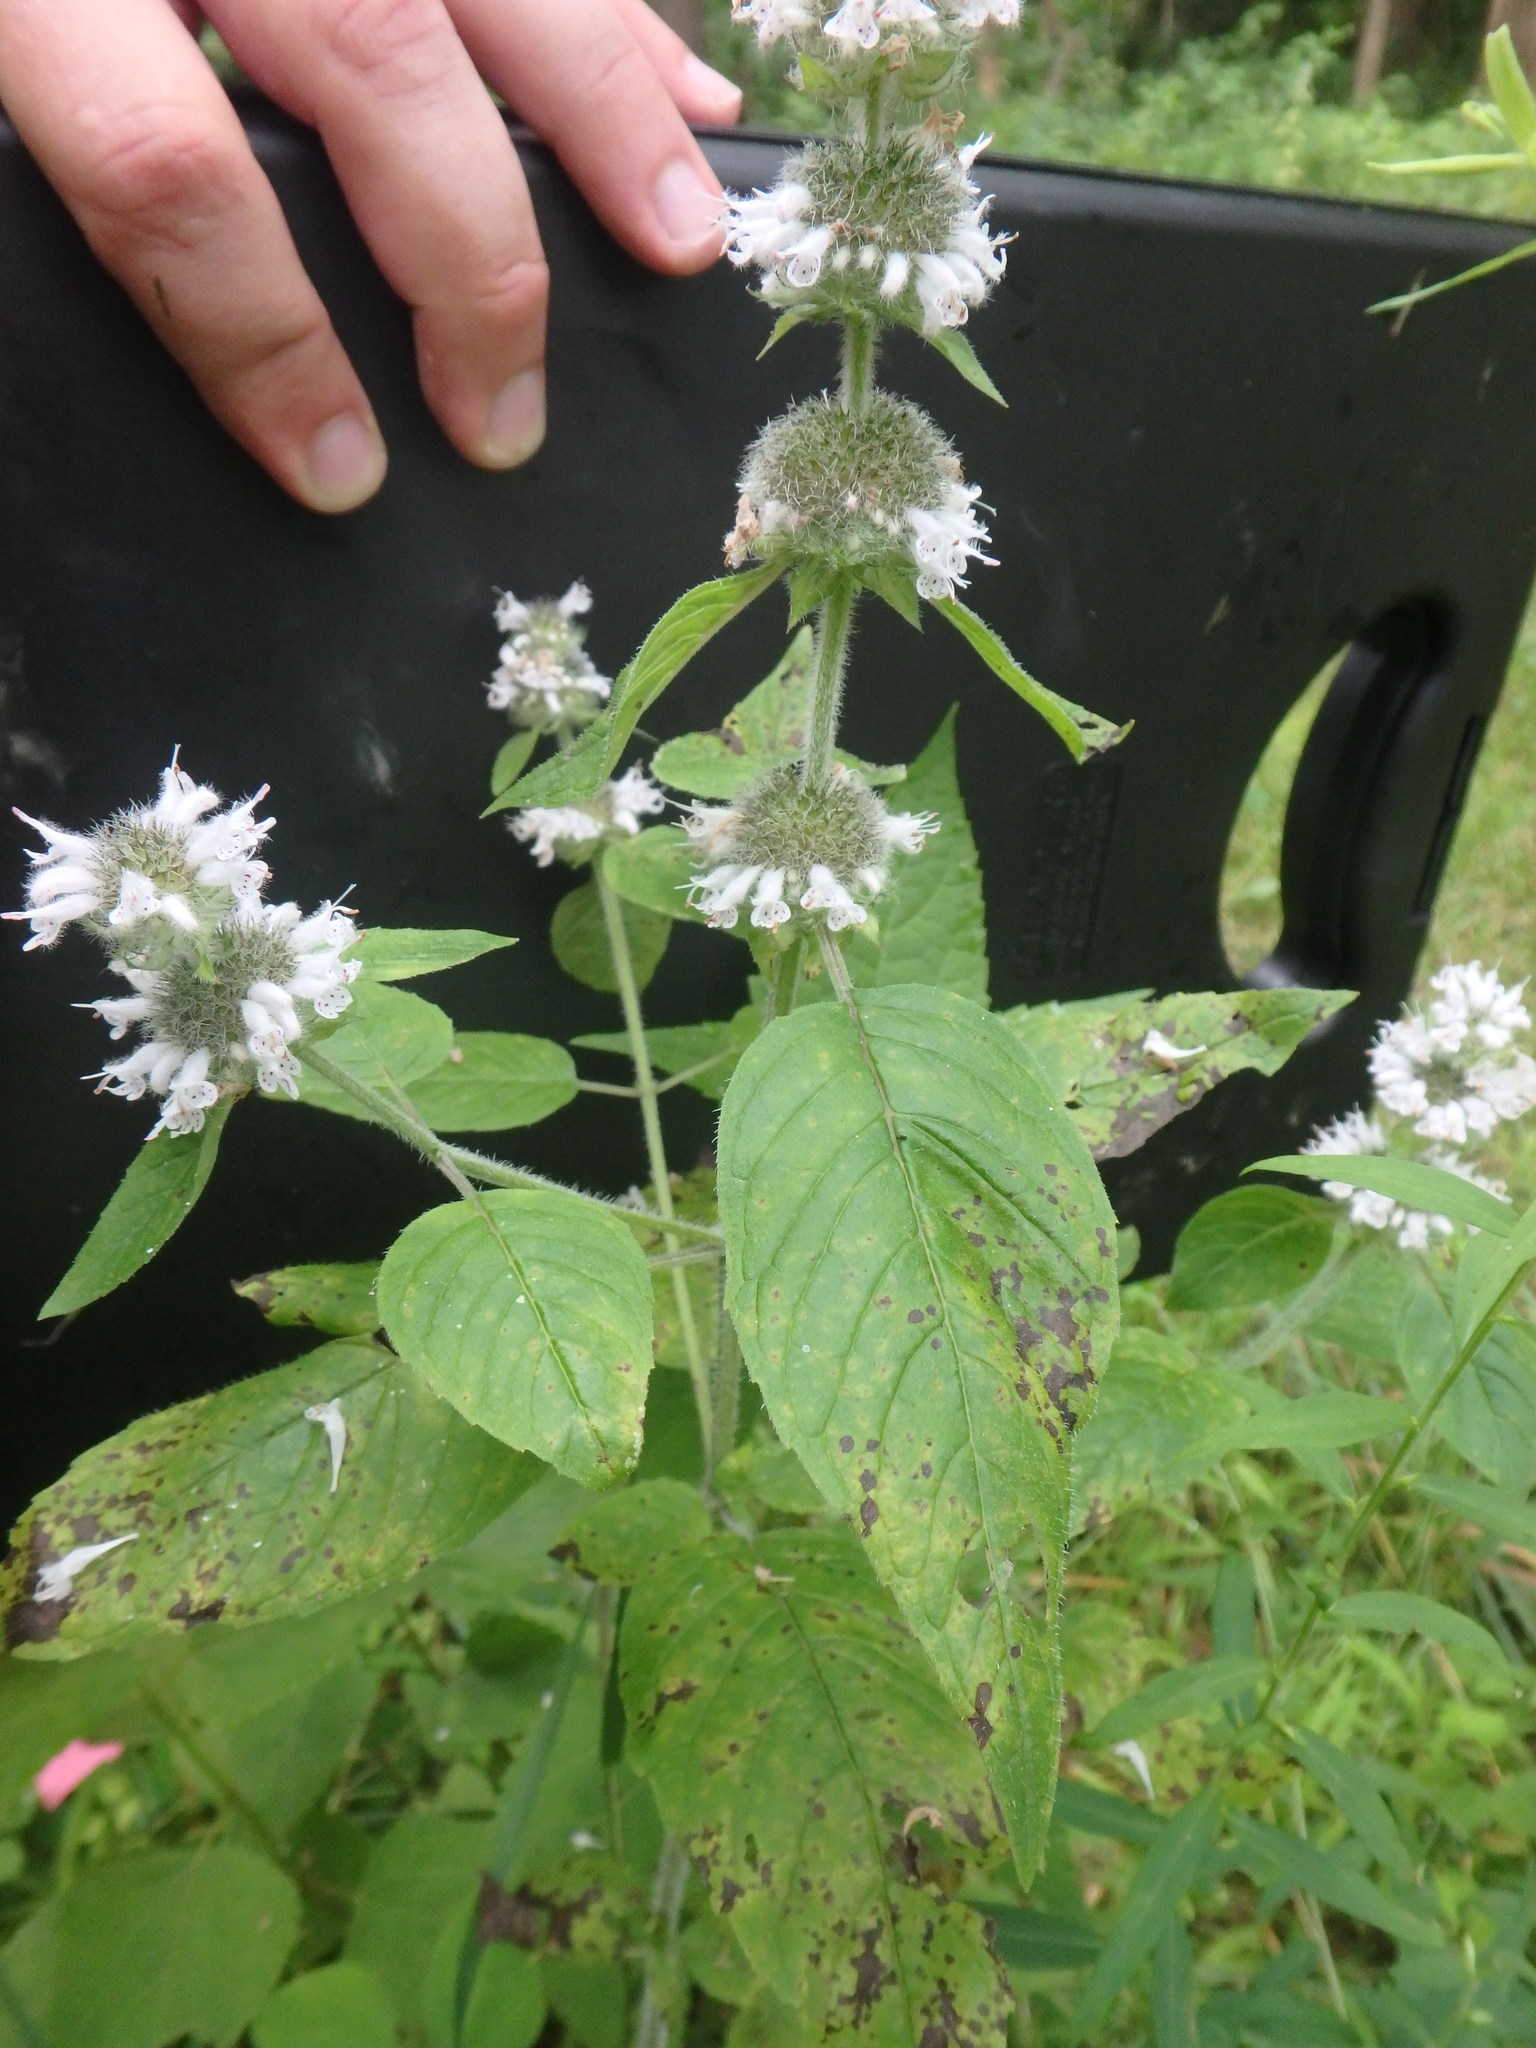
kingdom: Plantae
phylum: Tracheophyta
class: Magnoliopsida
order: Lamiales
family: Lamiaceae
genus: Blephilia
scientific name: Blephilia hirsuta
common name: Hairy blephilia
